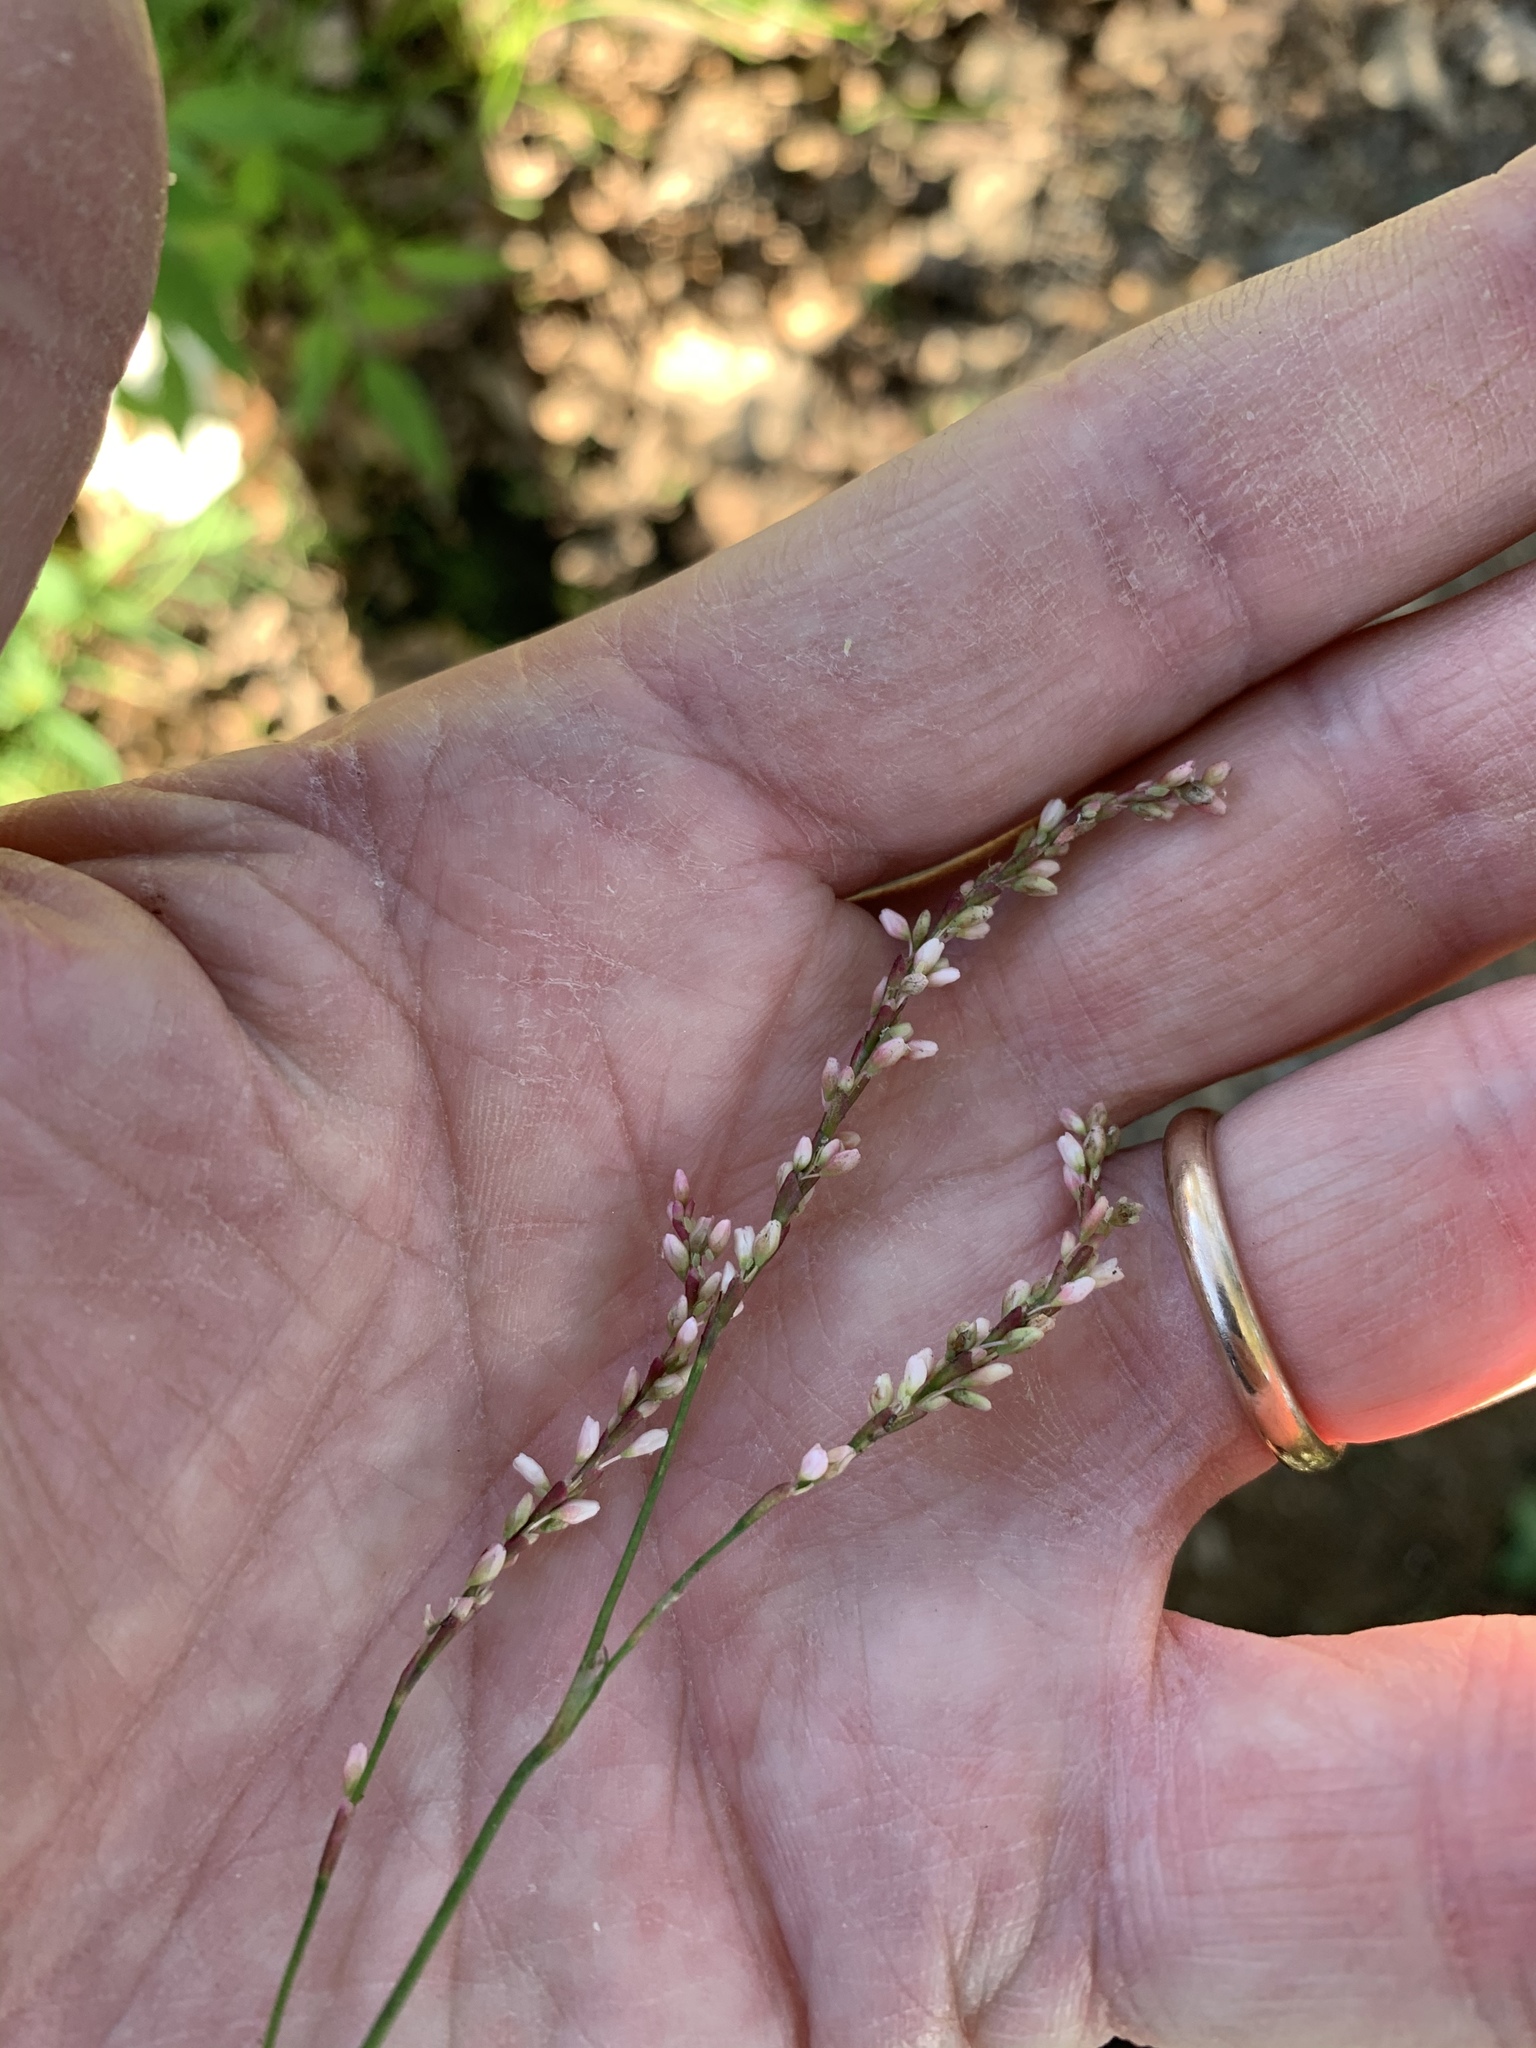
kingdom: Plantae
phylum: Tracheophyta
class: Magnoliopsida
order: Caryophyllales
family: Polygonaceae
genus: Persicaria
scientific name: Persicaria decipiens
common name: Willow-weed
